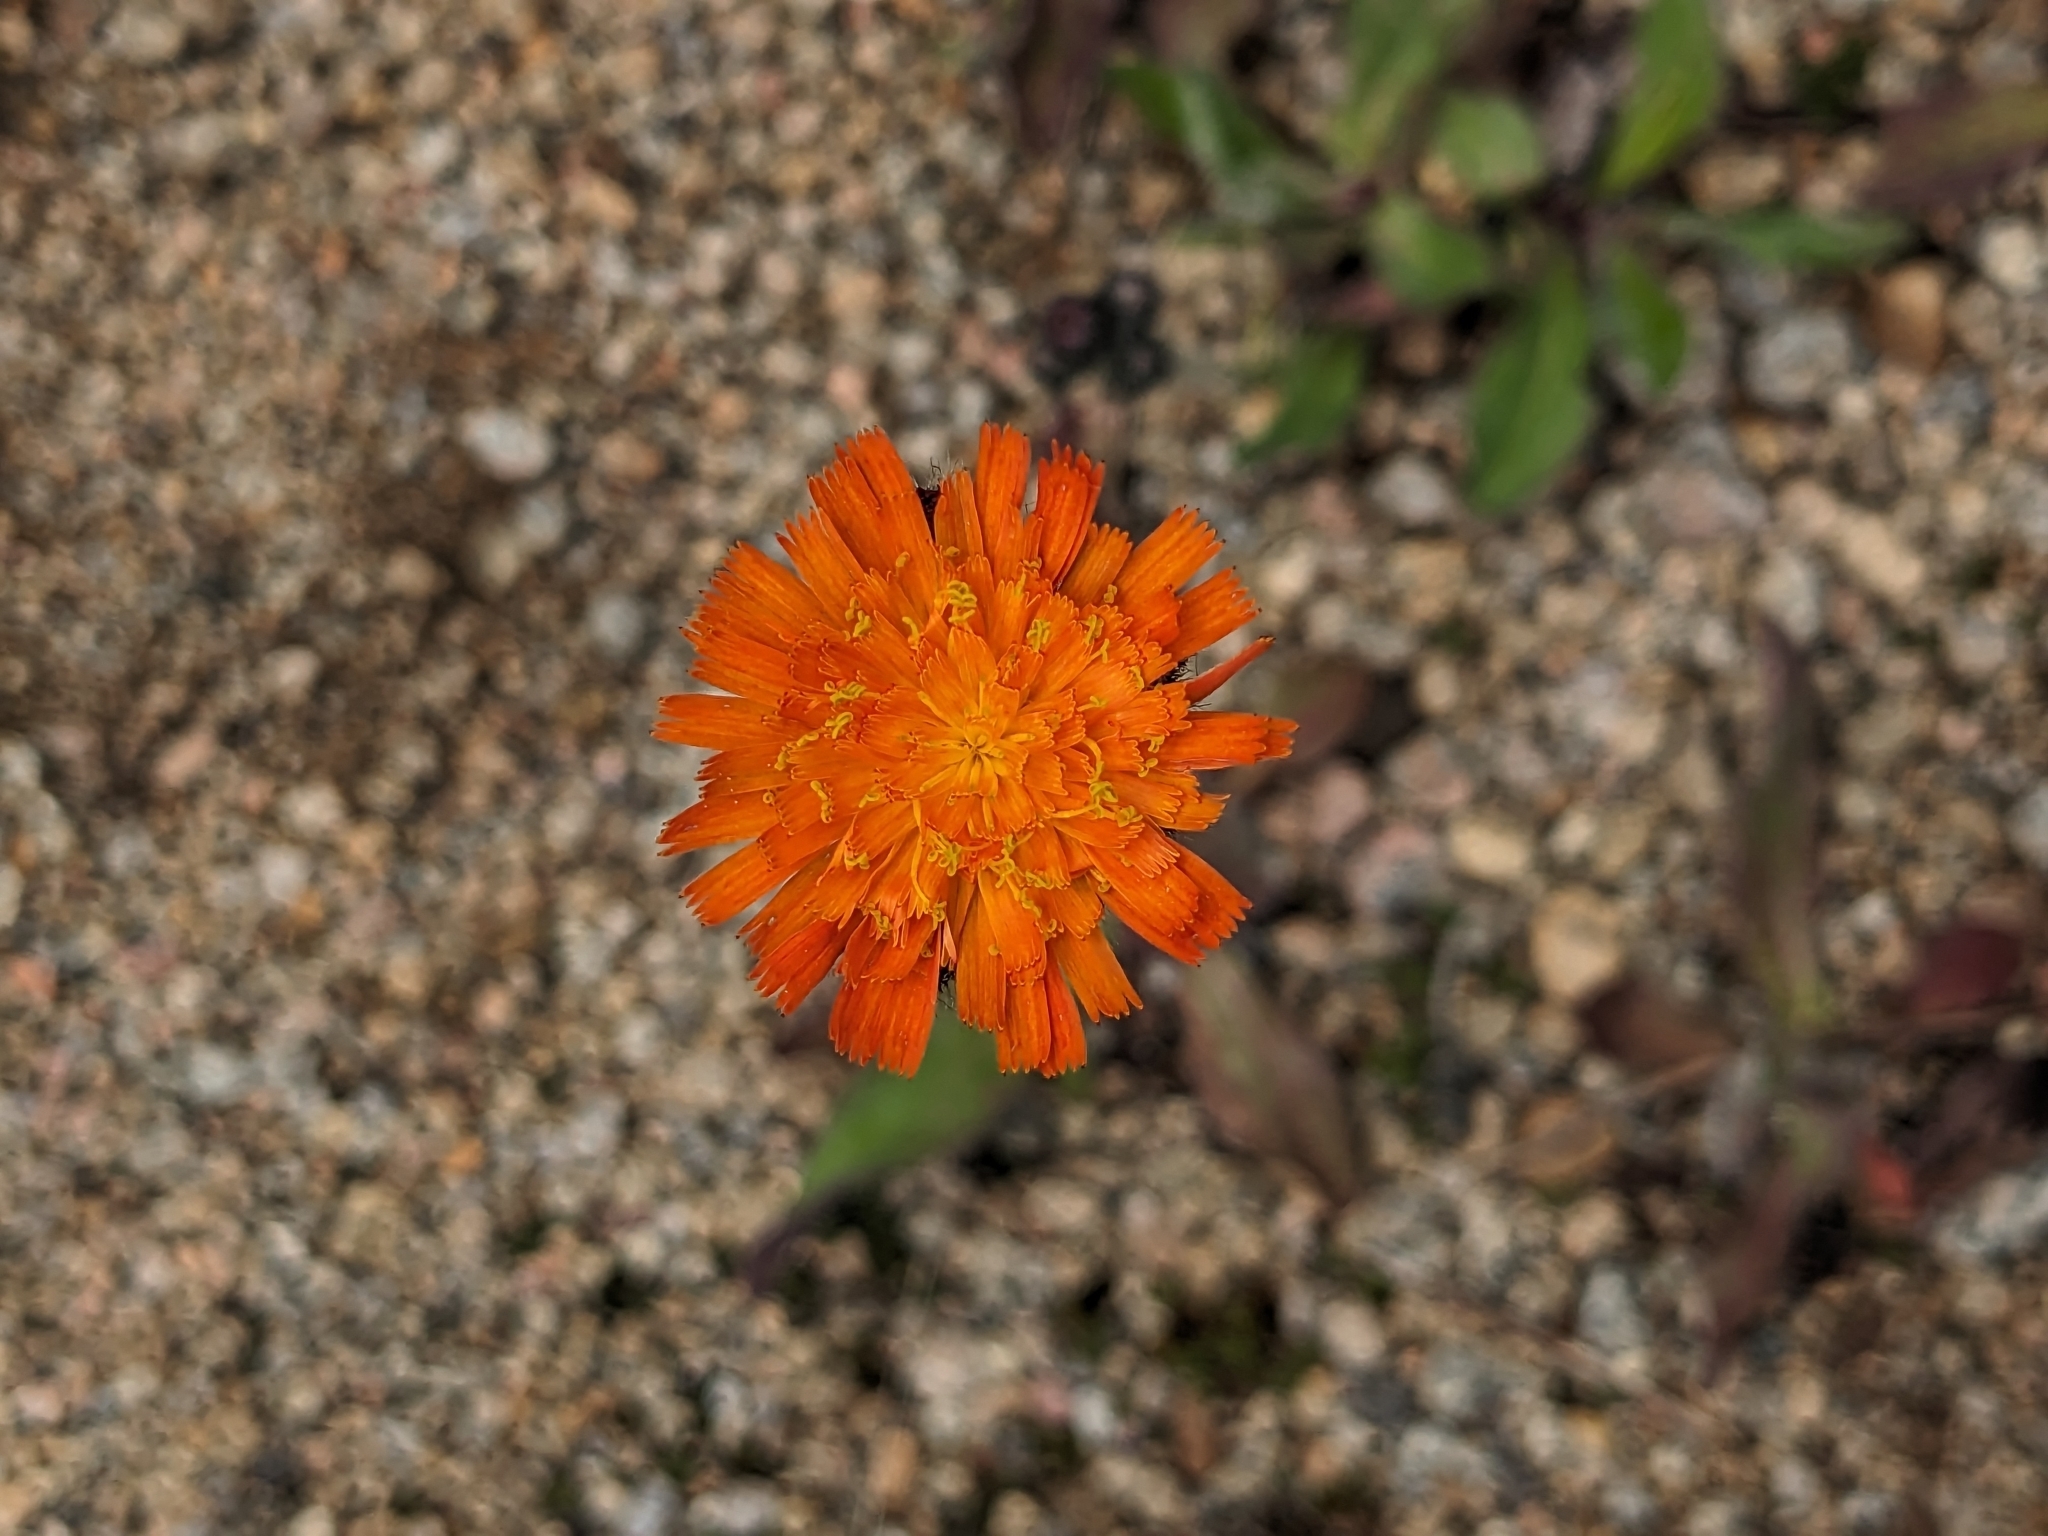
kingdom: Plantae
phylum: Tracheophyta
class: Magnoliopsida
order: Asterales
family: Asteraceae
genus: Pilosella
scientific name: Pilosella aurantiaca
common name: Fox-and-cubs
